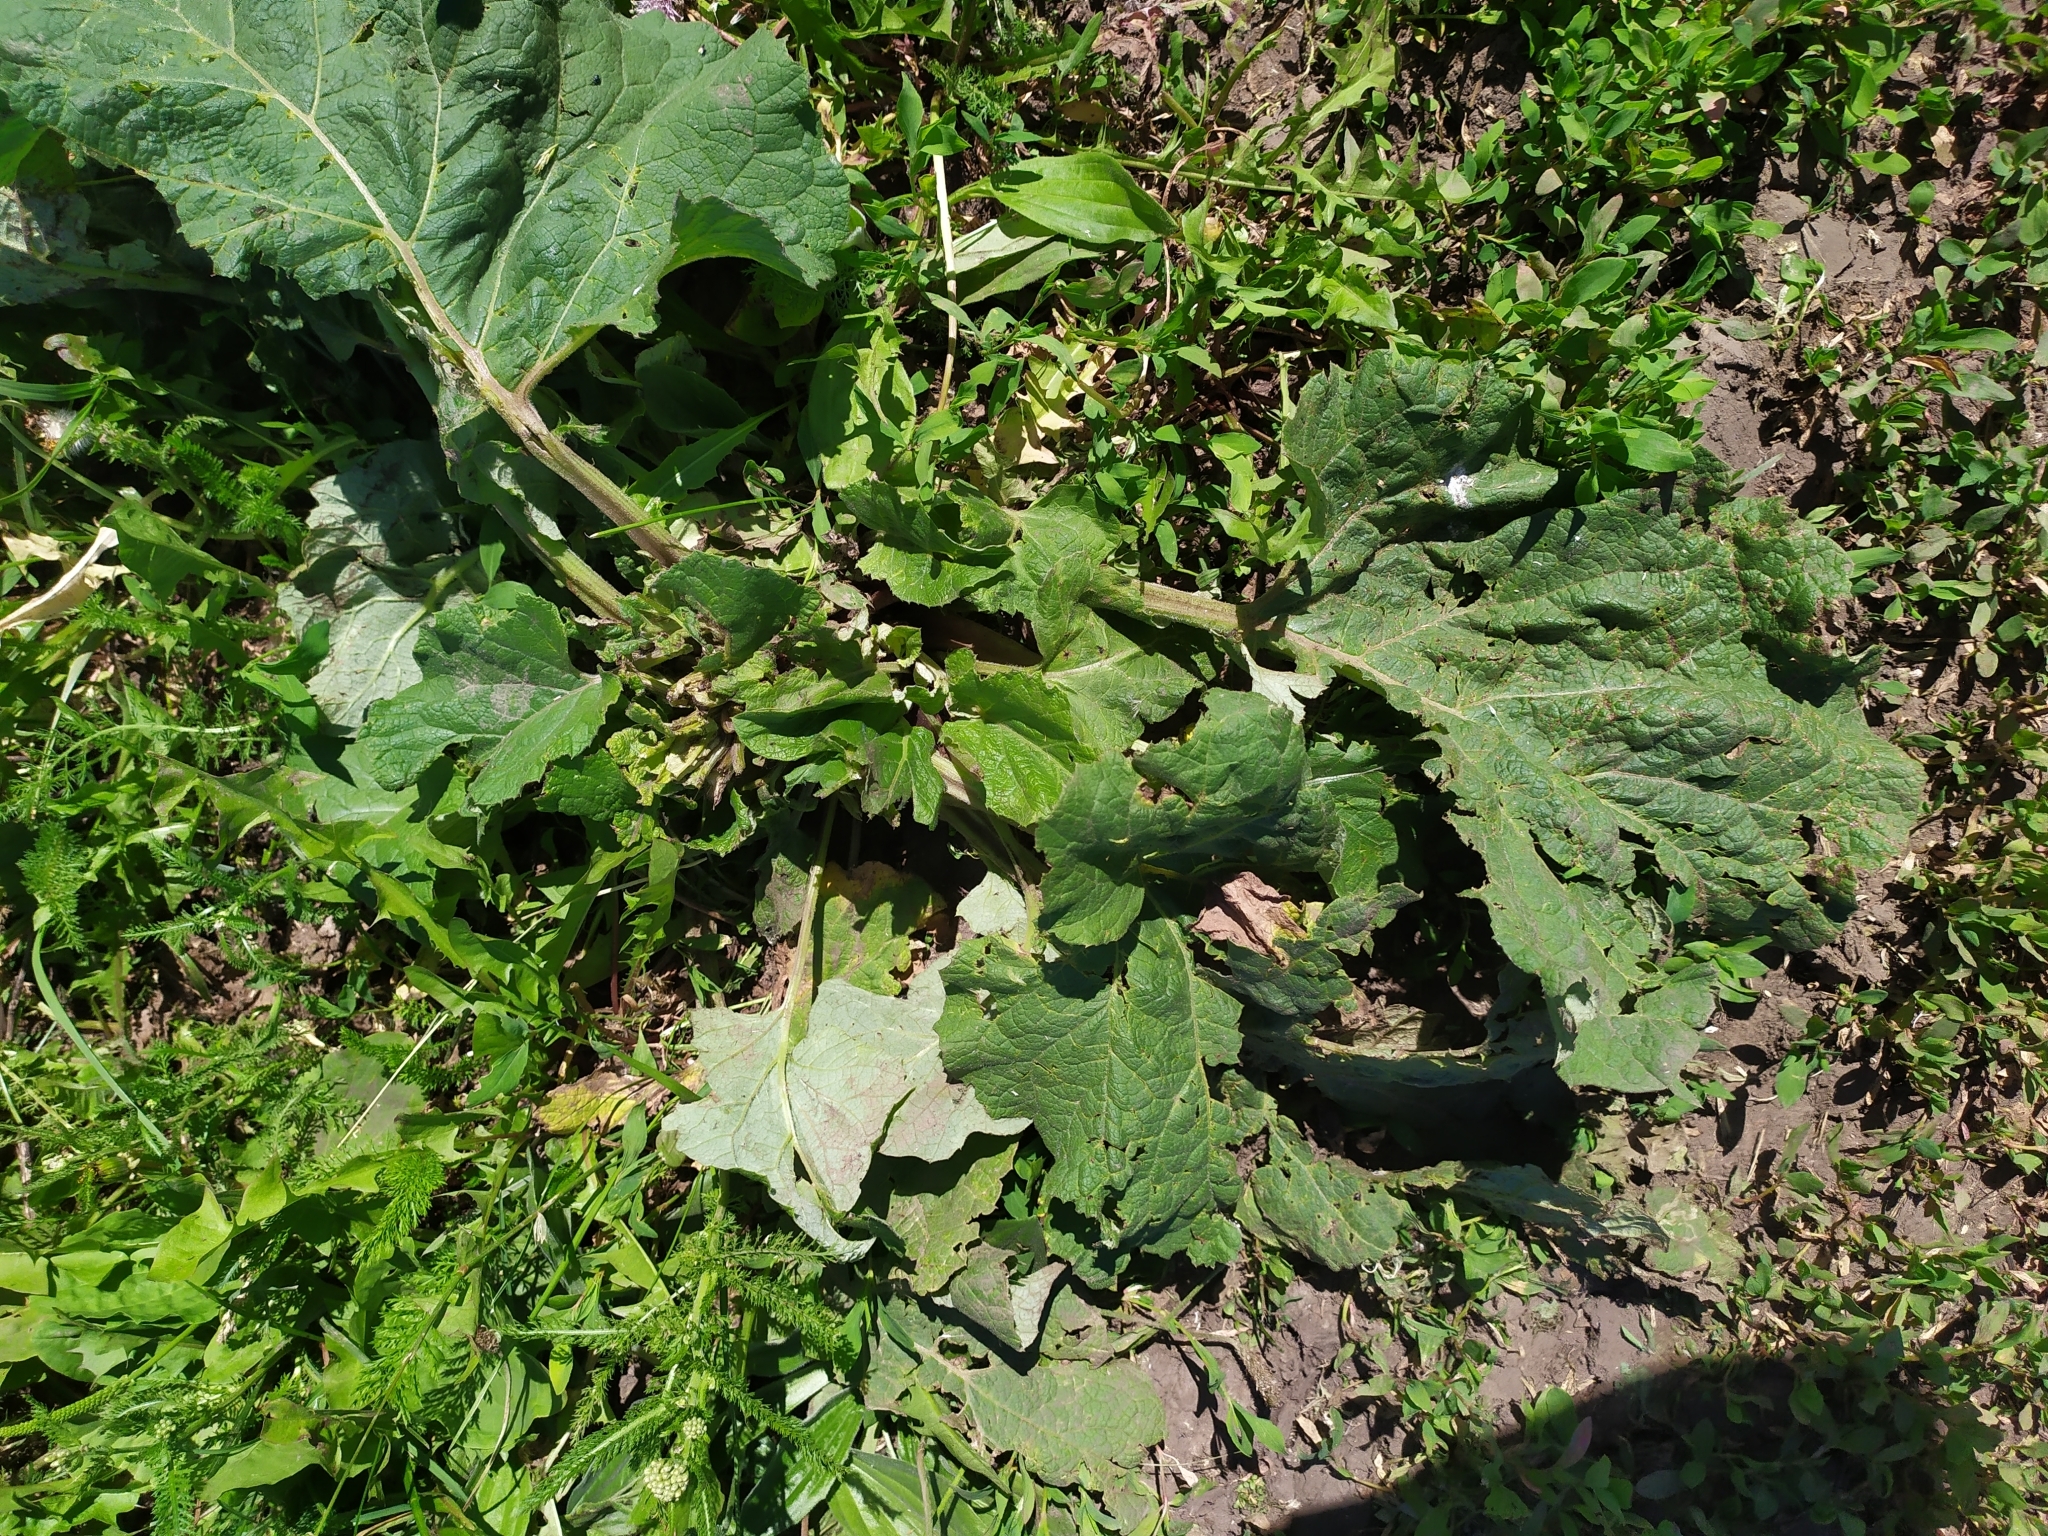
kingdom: Plantae
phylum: Tracheophyta
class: Magnoliopsida
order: Asterales
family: Asteraceae
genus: Arctium
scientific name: Arctium
